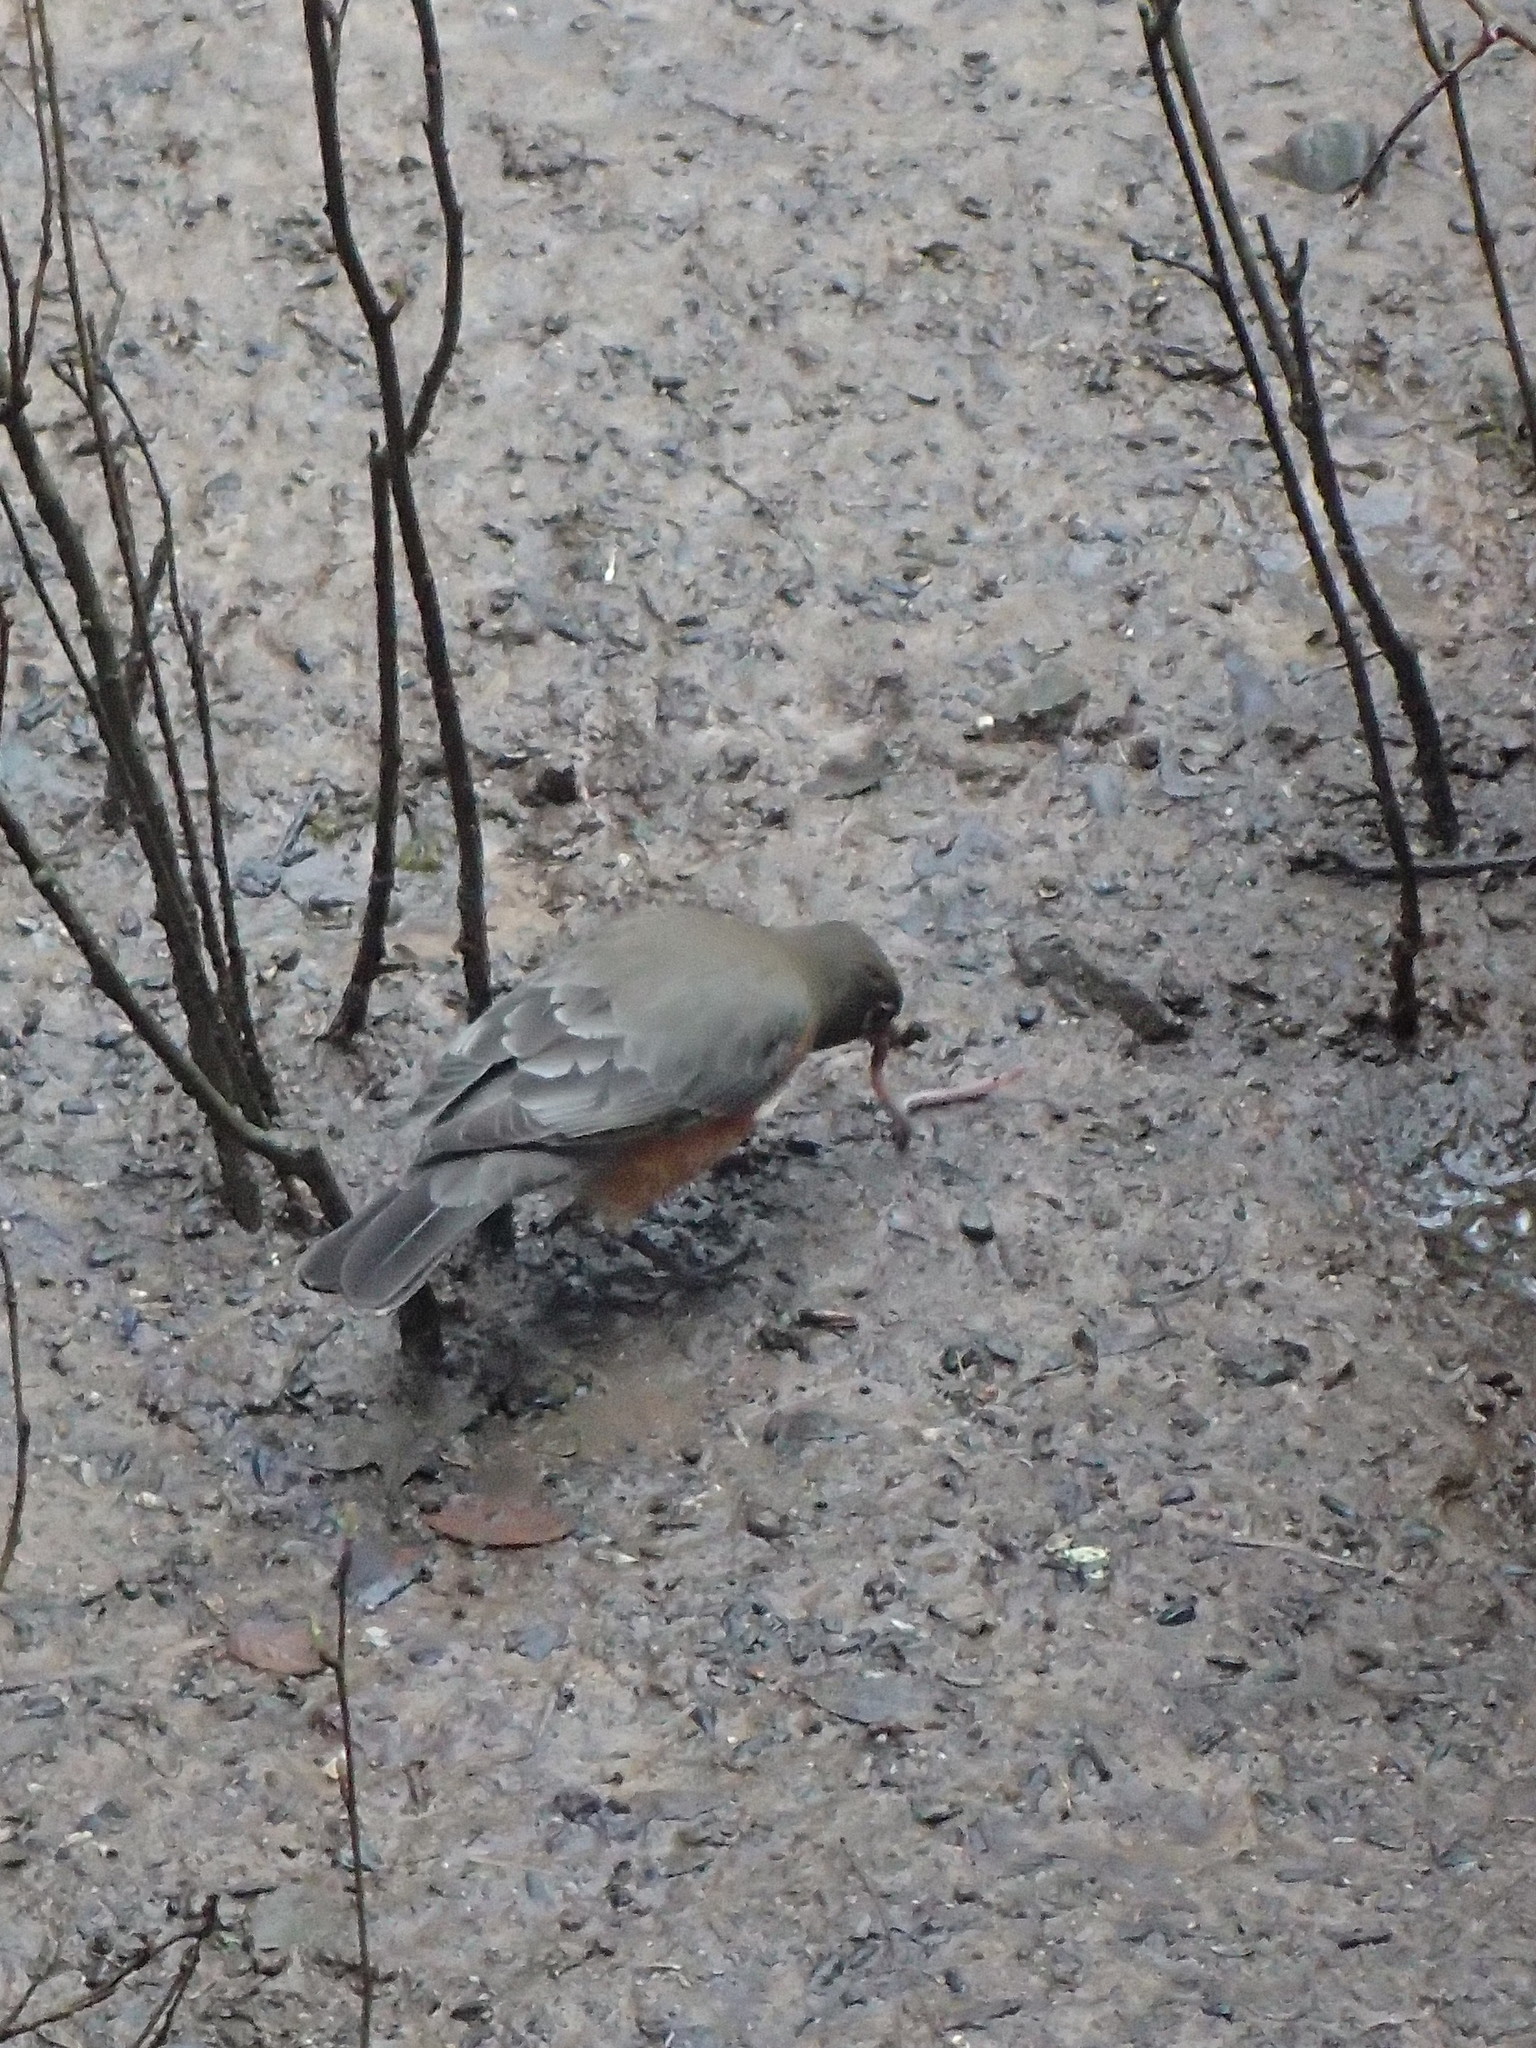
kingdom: Animalia
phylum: Chordata
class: Aves
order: Passeriformes
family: Turdidae
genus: Turdus
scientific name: Turdus migratorius
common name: American robin
